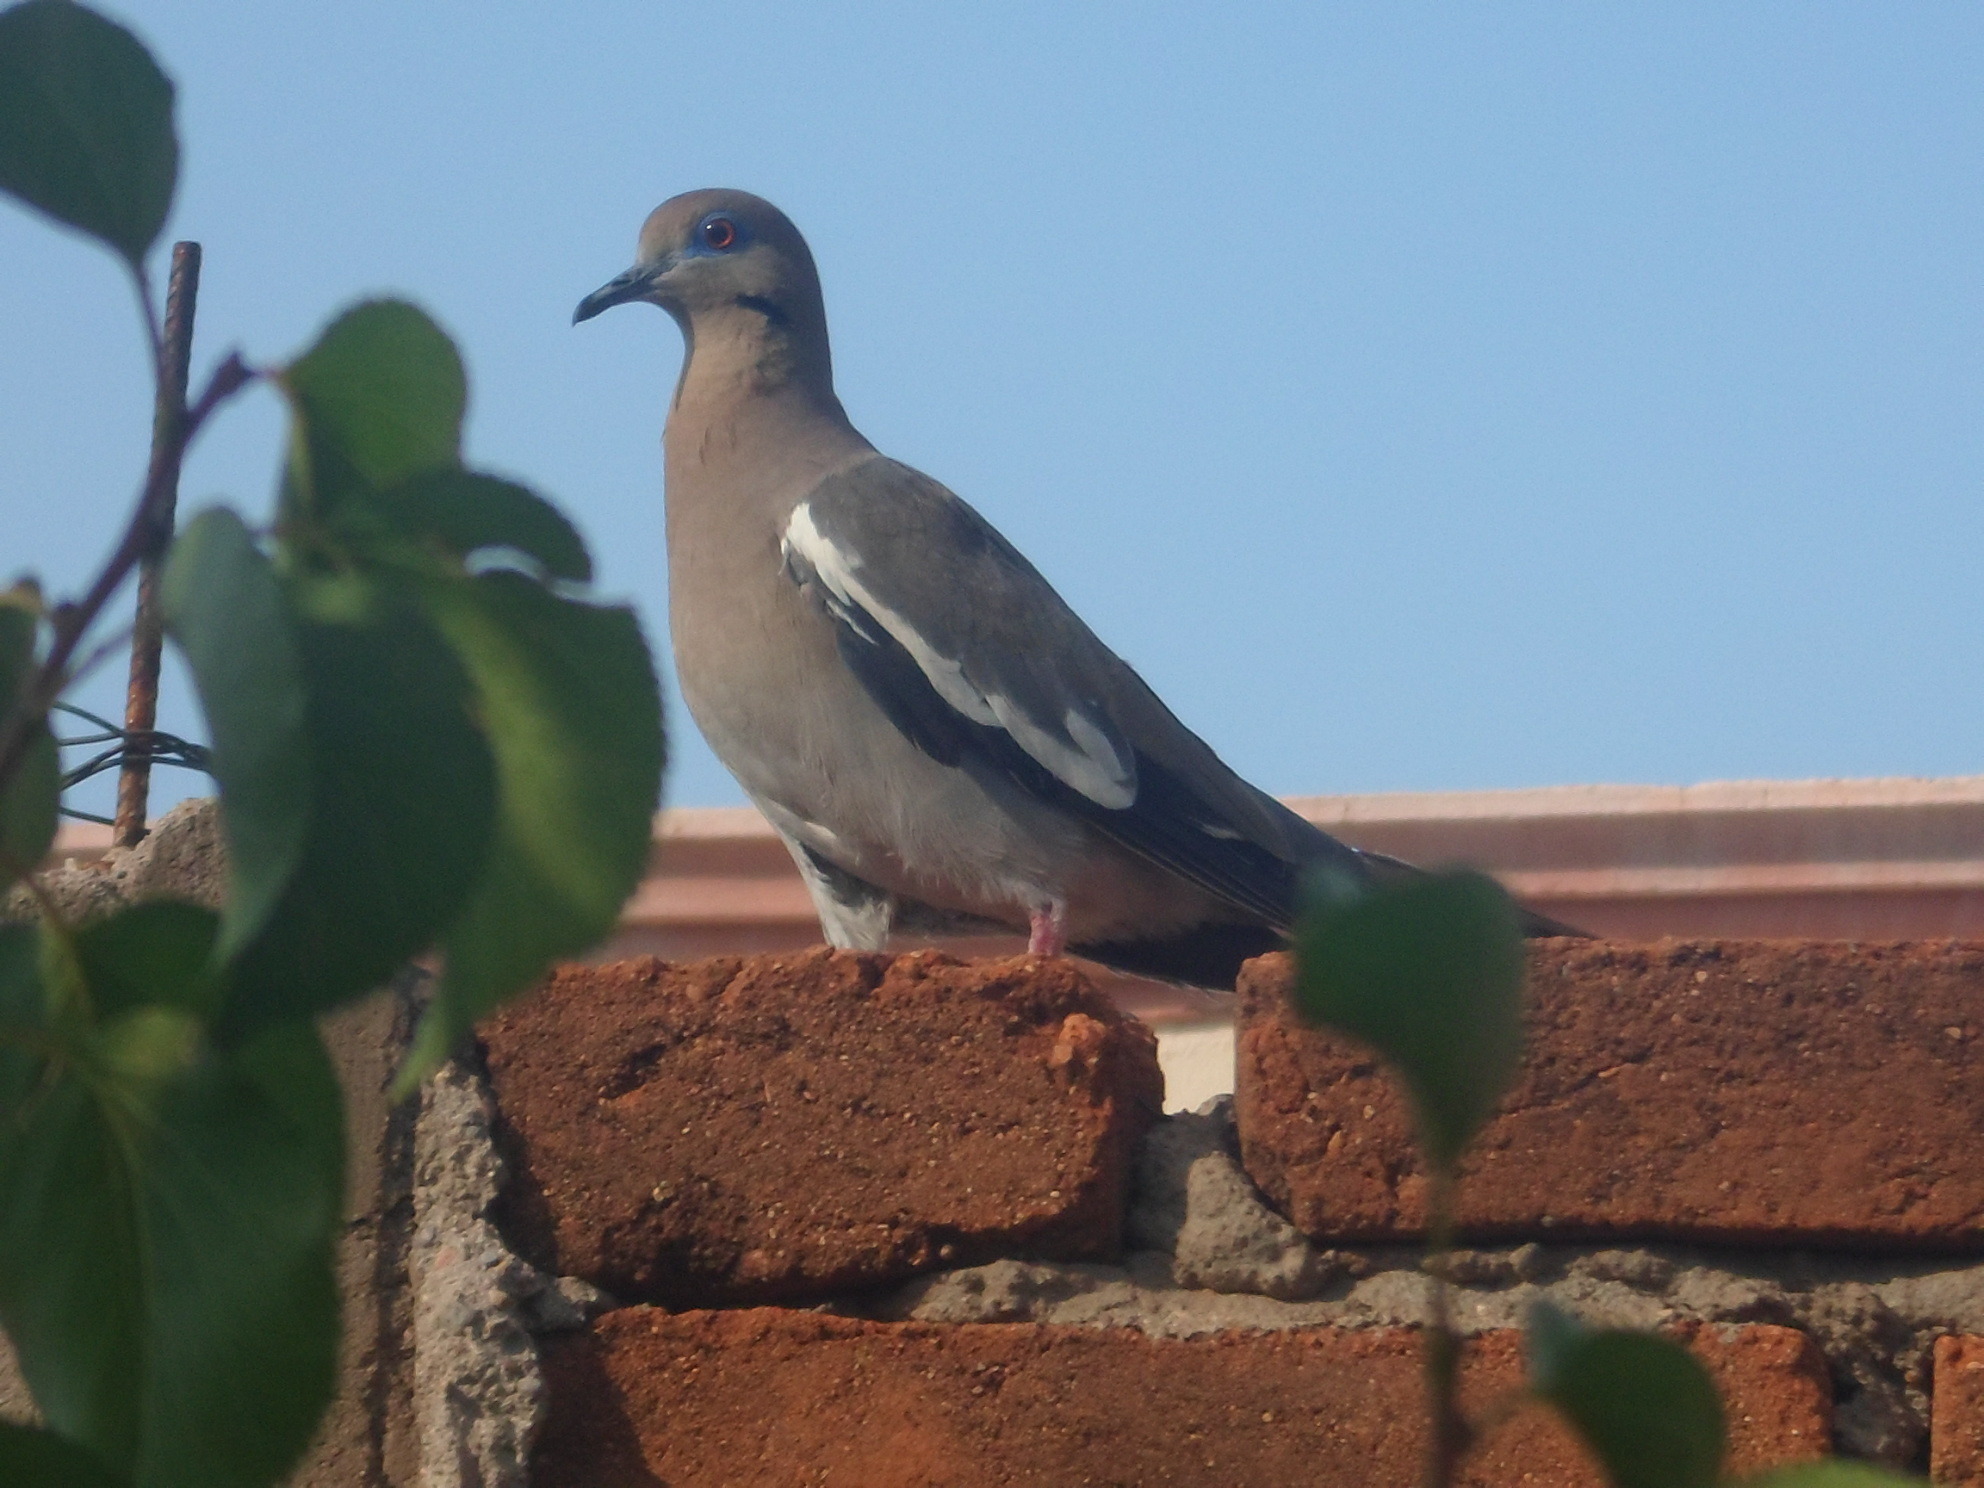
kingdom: Animalia
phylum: Chordata
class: Aves
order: Columbiformes
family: Columbidae
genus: Zenaida
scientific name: Zenaida asiatica
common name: White-winged dove
